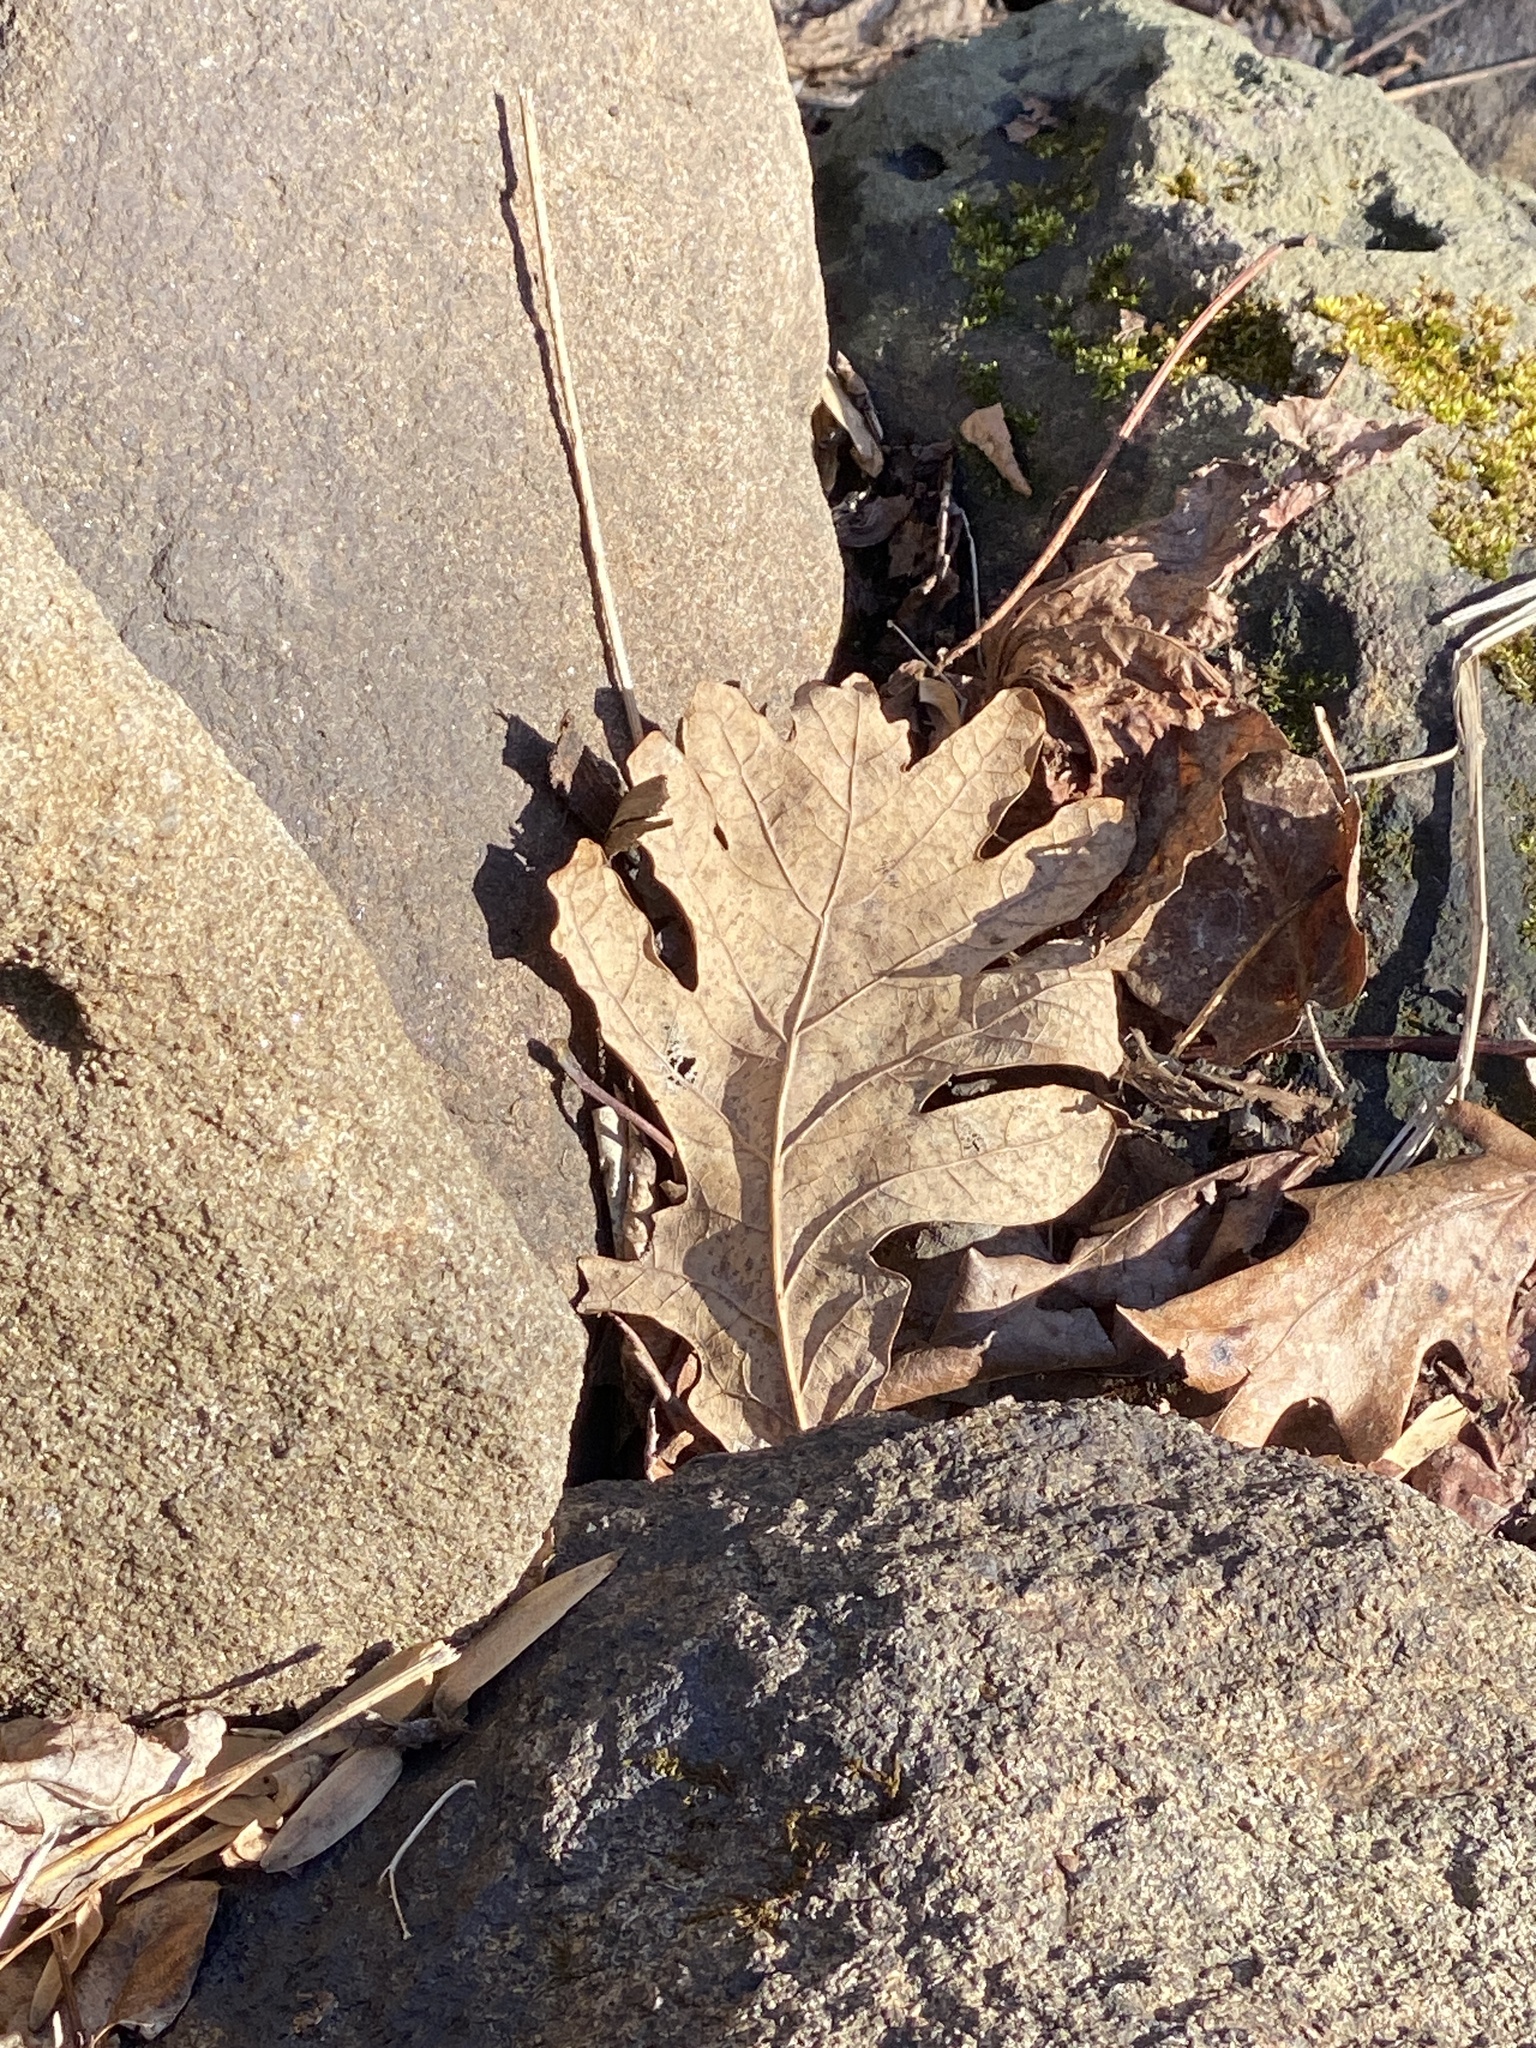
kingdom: Plantae
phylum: Tracheophyta
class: Magnoliopsida
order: Fagales
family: Fagaceae
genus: Quercus
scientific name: Quercus alba
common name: White oak
